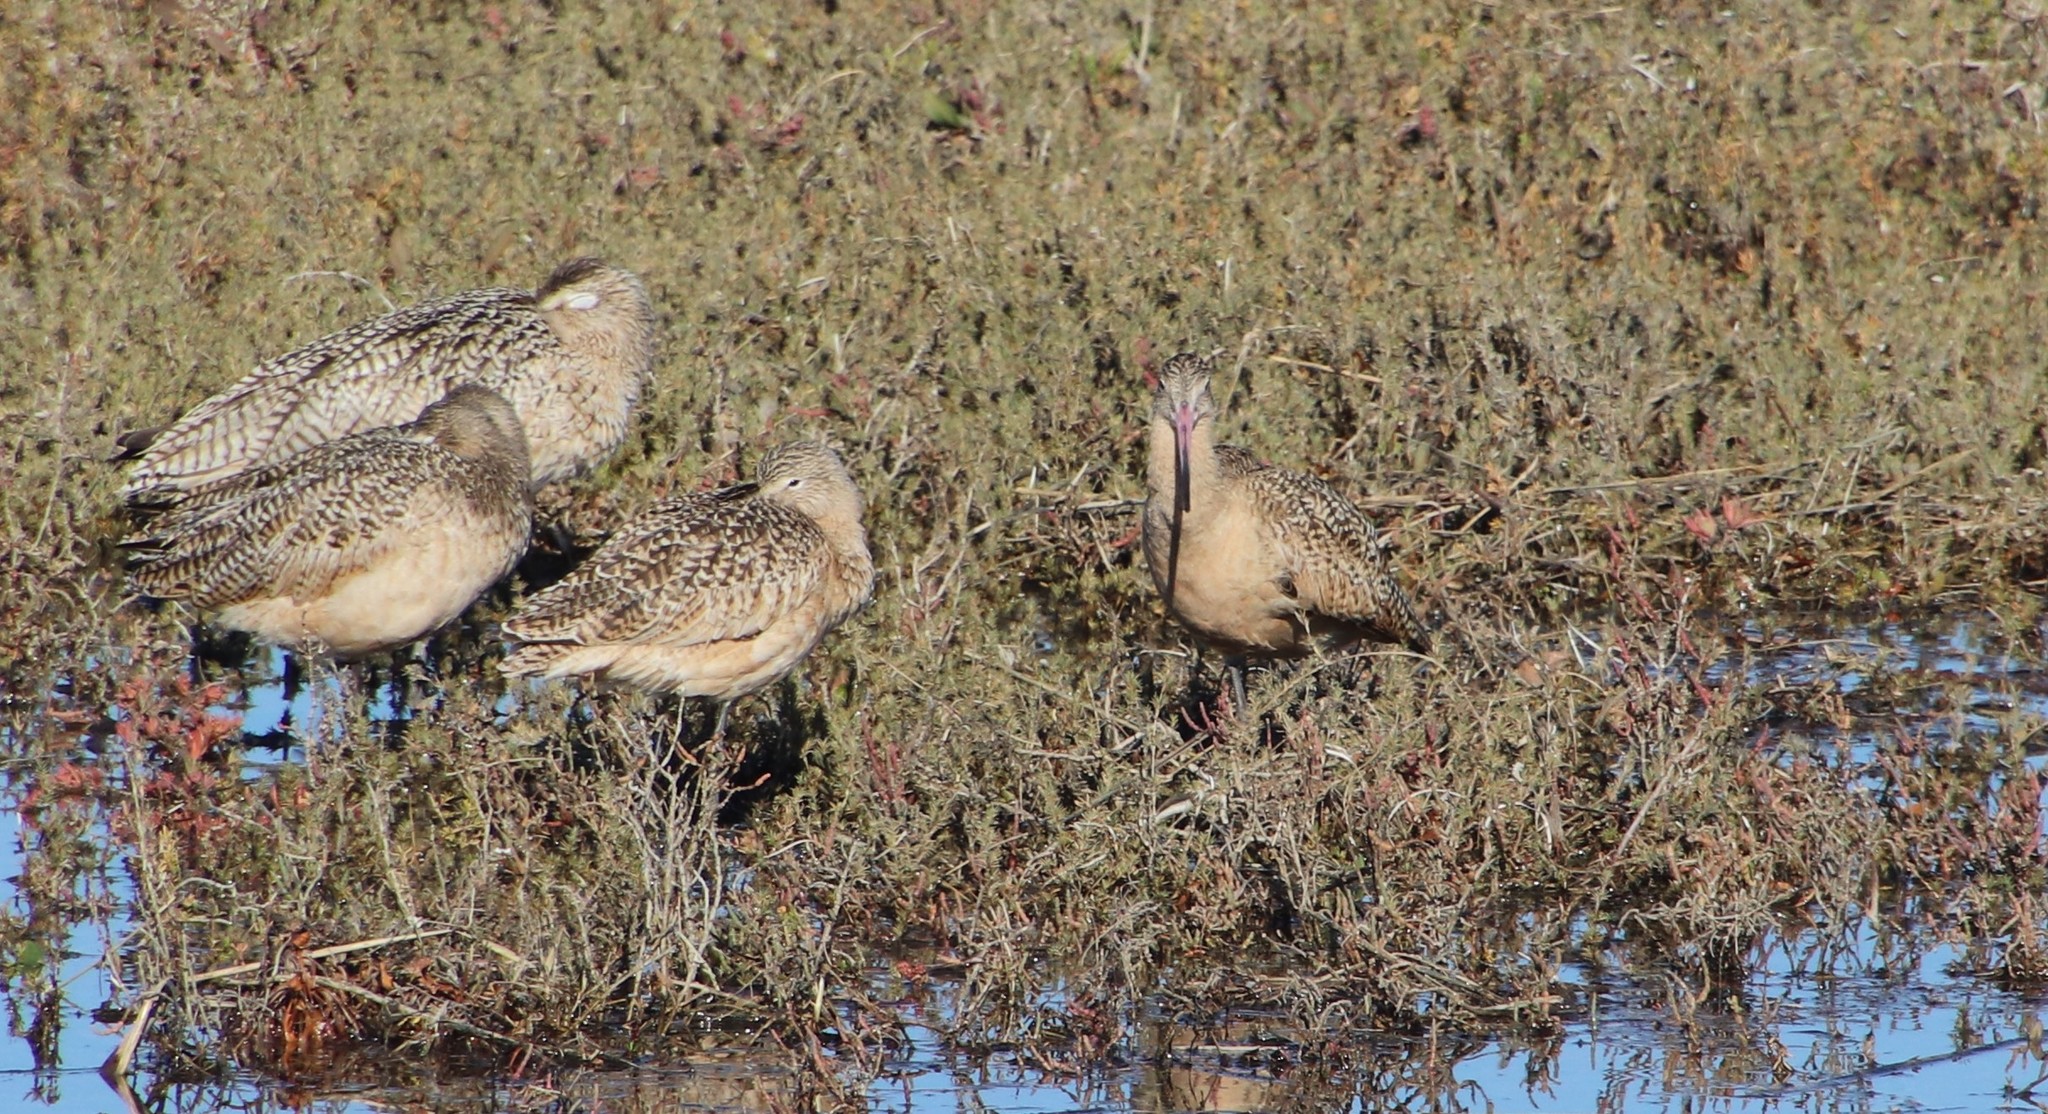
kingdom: Animalia
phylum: Chordata
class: Aves
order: Charadriiformes
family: Scolopacidae
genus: Limosa
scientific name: Limosa fedoa
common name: Marbled godwit
